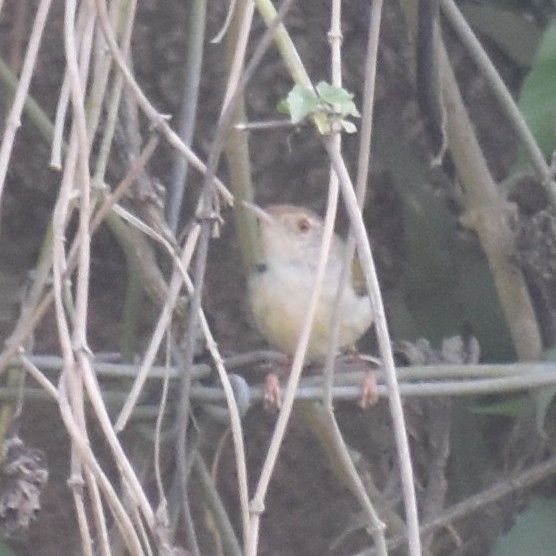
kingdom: Animalia
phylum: Chordata
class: Aves
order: Passeriformes
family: Cisticolidae
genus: Orthotomus
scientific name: Orthotomus sutorius
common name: Common tailorbird
